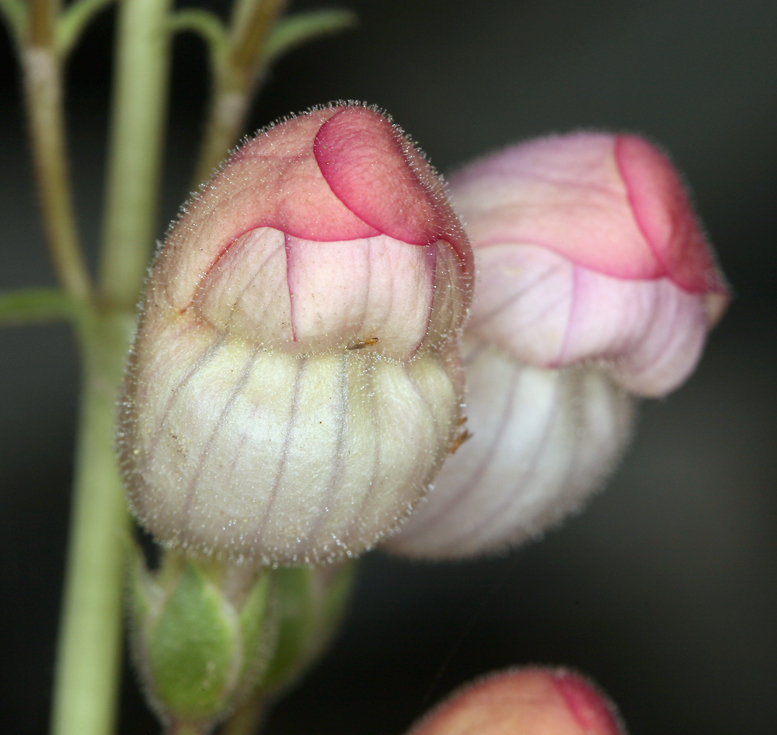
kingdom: Plantae
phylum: Tracheophyta
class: Magnoliopsida
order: Lamiales
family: Plantaginaceae
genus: Penstemon
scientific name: Penstemon palmeri
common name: Palmer penstemon
